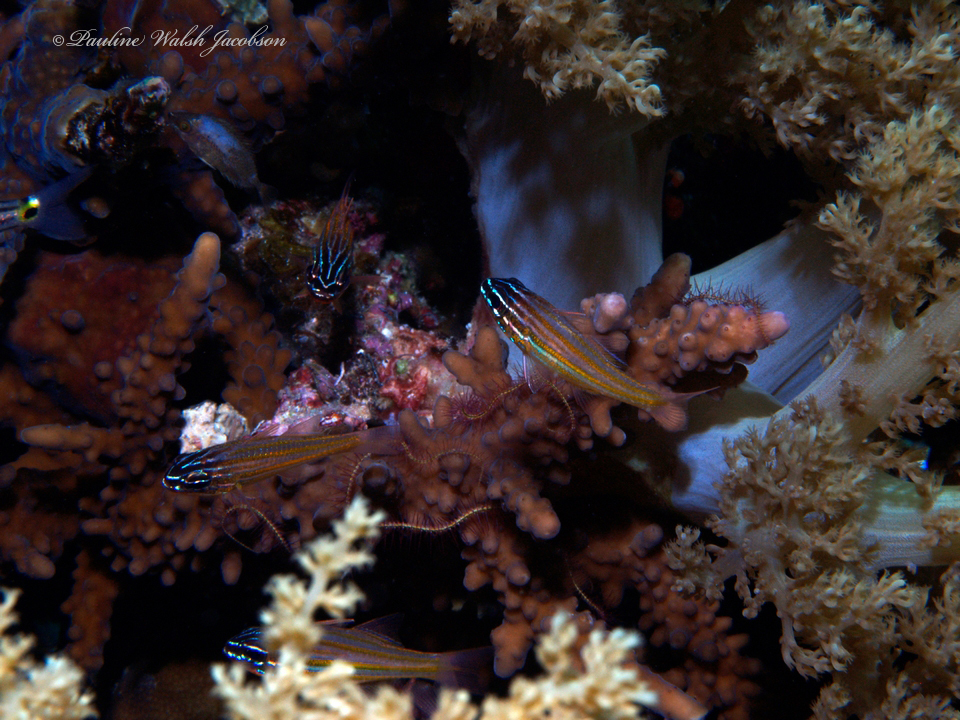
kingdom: Animalia
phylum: Chordata
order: Perciformes
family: Apogonidae
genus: Ostorhinchus
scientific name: Ostorhinchus cyanosoma
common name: Yellow-striped cardinalfish
